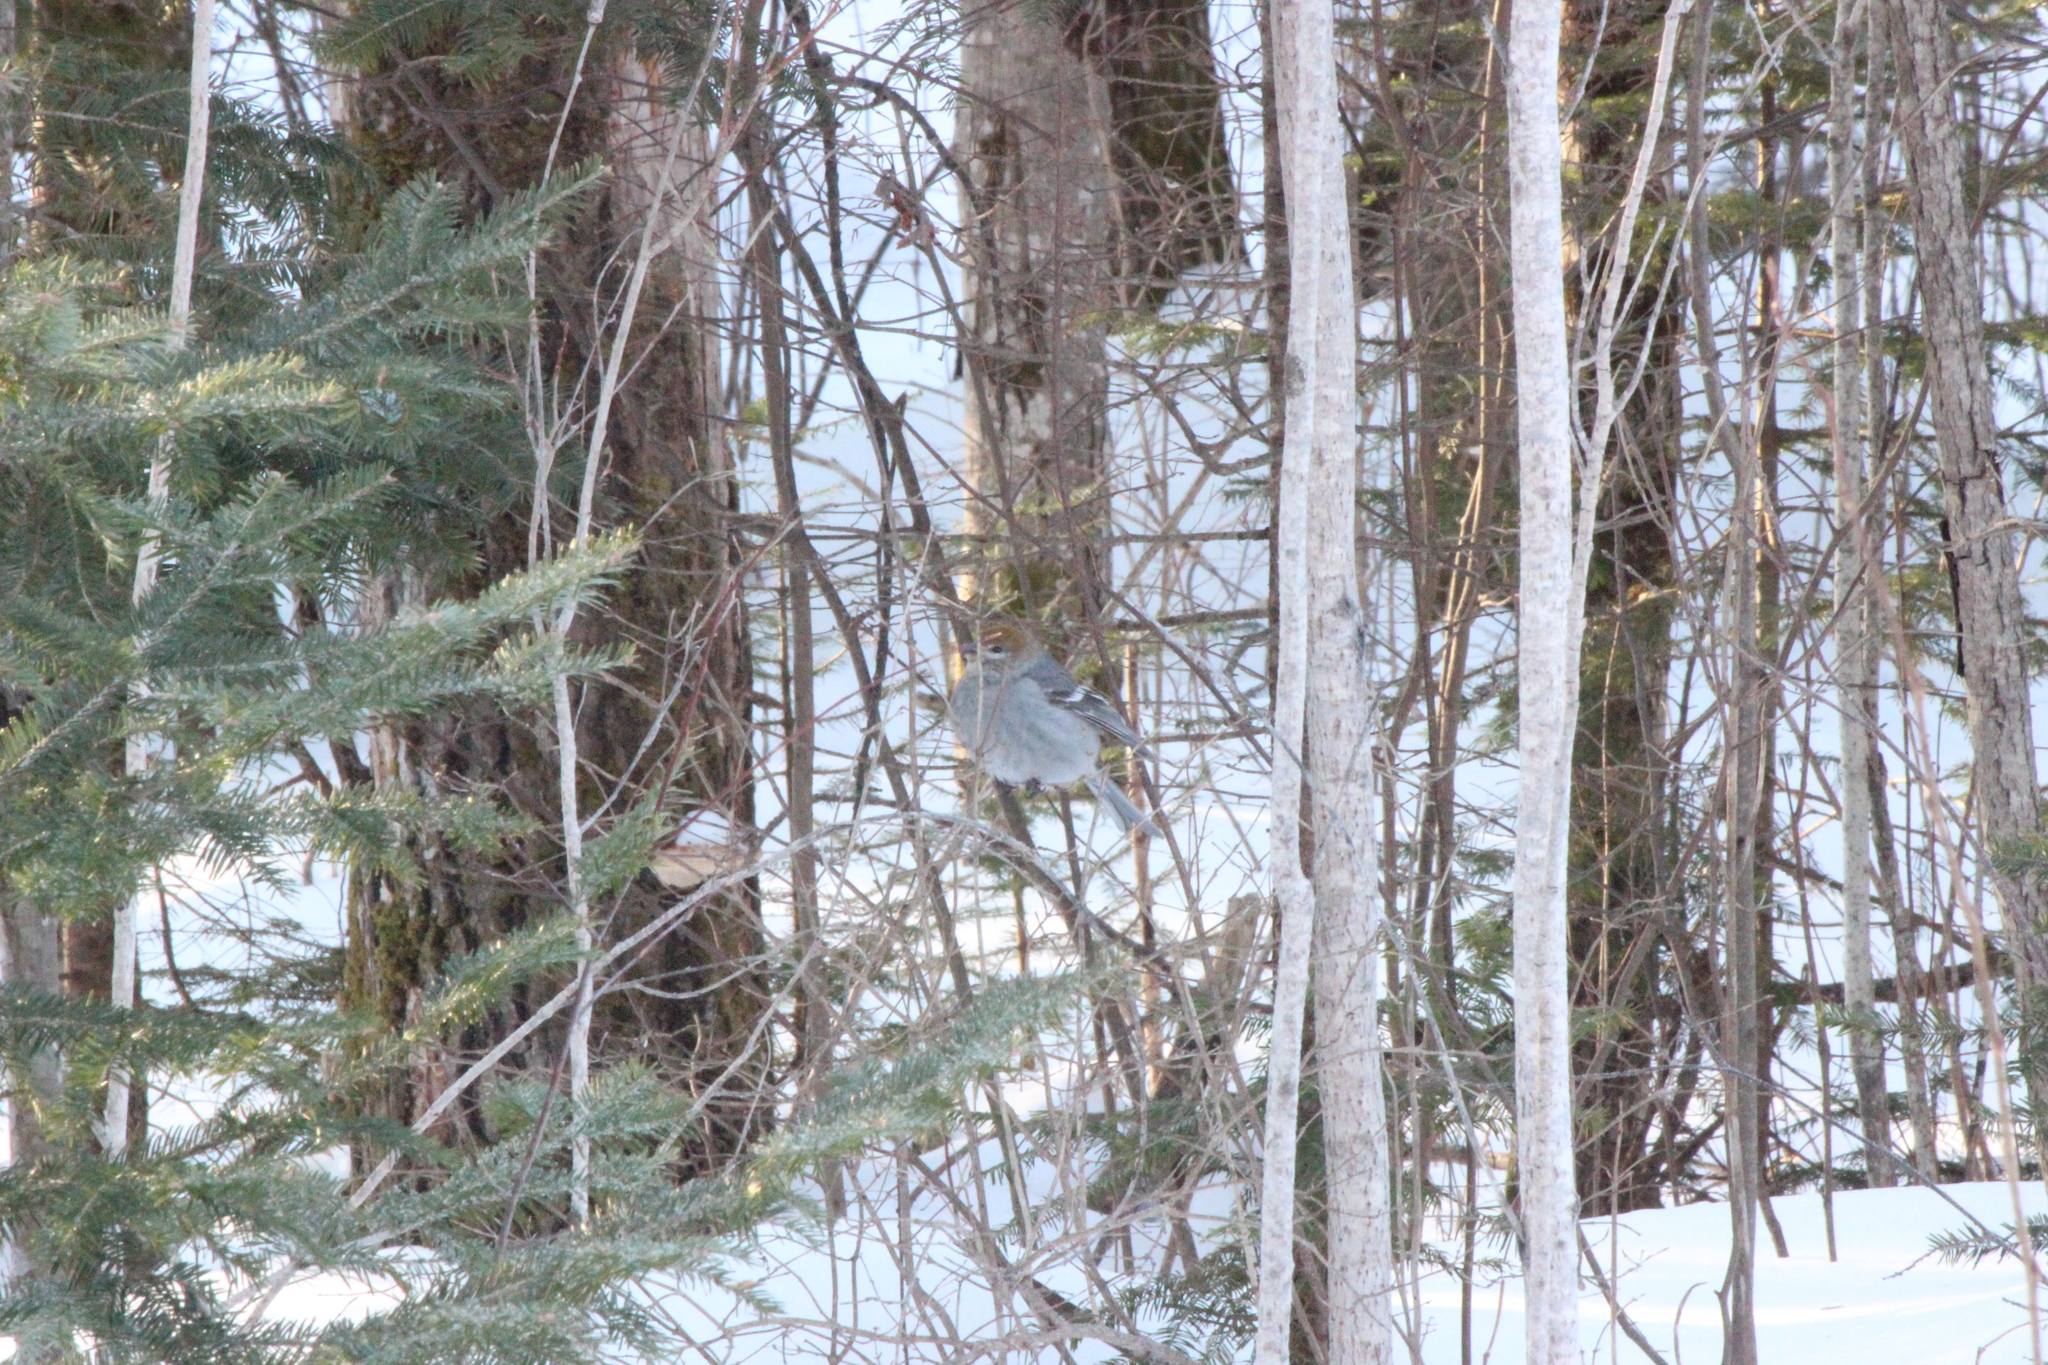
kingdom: Animalia
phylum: Chordata
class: Aves
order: Passeriformes
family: Fringillidae
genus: Pinicola
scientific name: Pinicola enucleator
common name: Pine grosbeak
